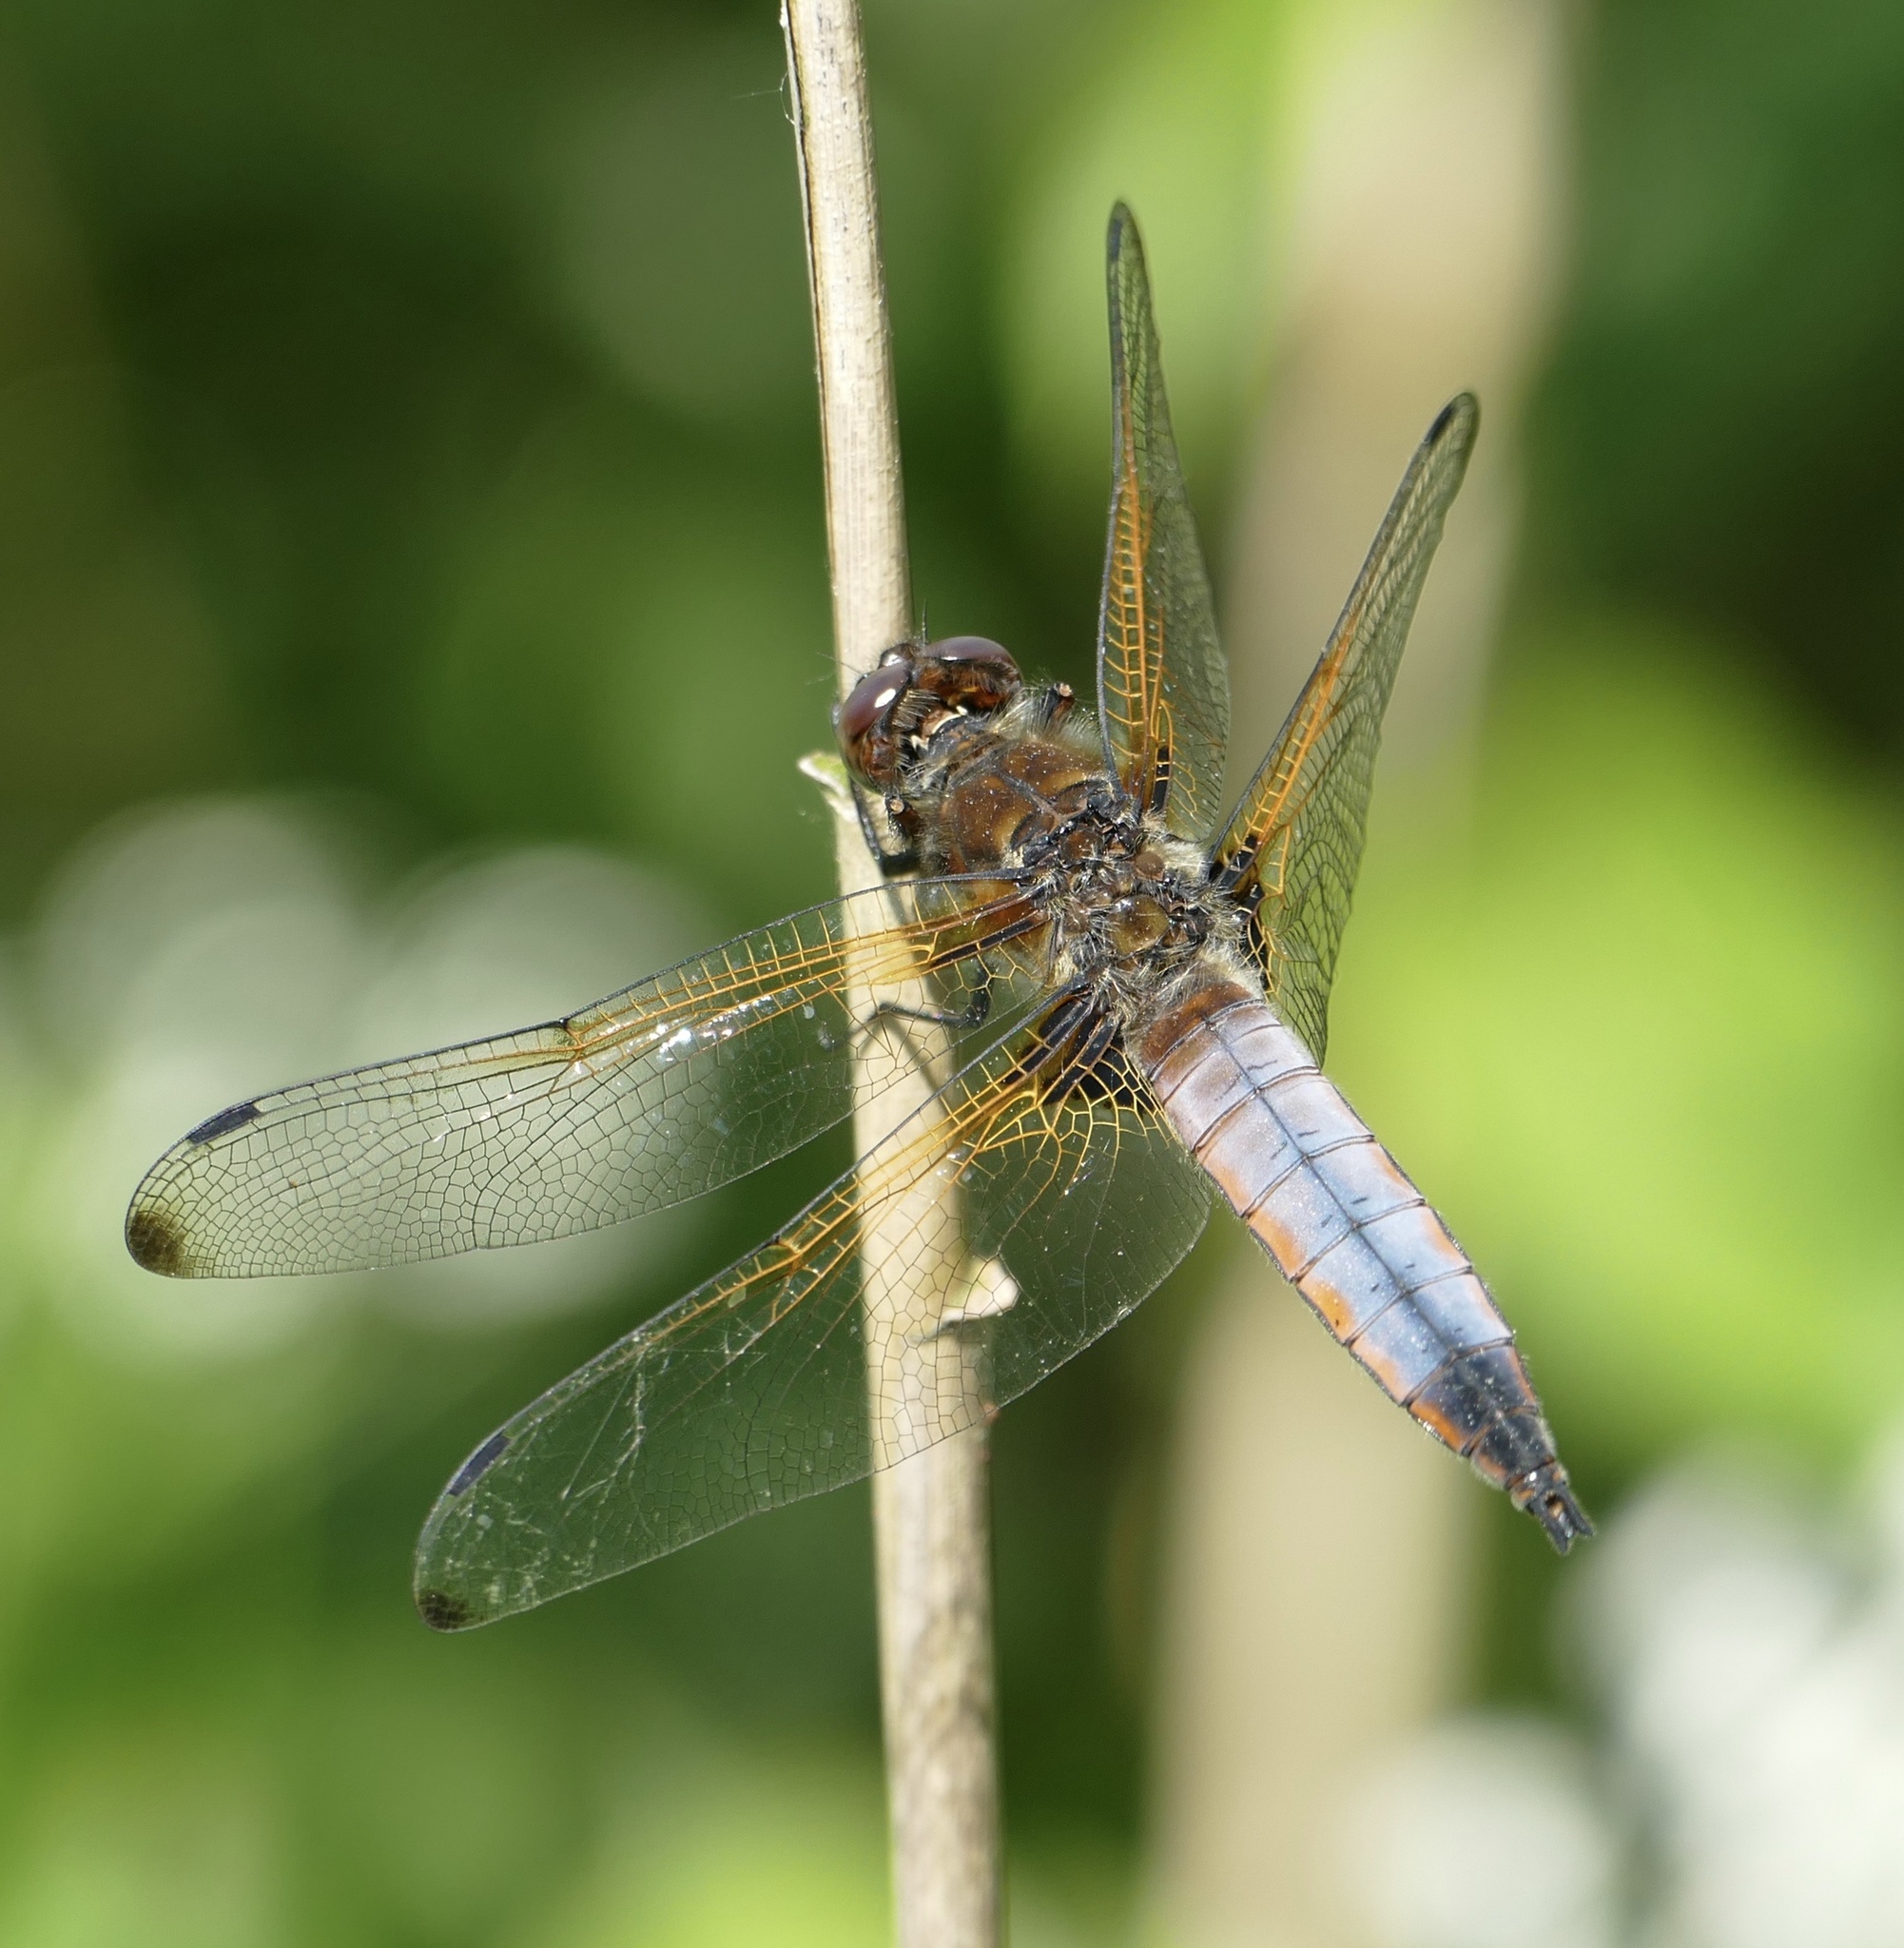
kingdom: Animalia
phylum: Arthropoda
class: Insecta
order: Odonata
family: Libellulidae
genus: Libellula
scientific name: Libellula fulva
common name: Blue chaser
